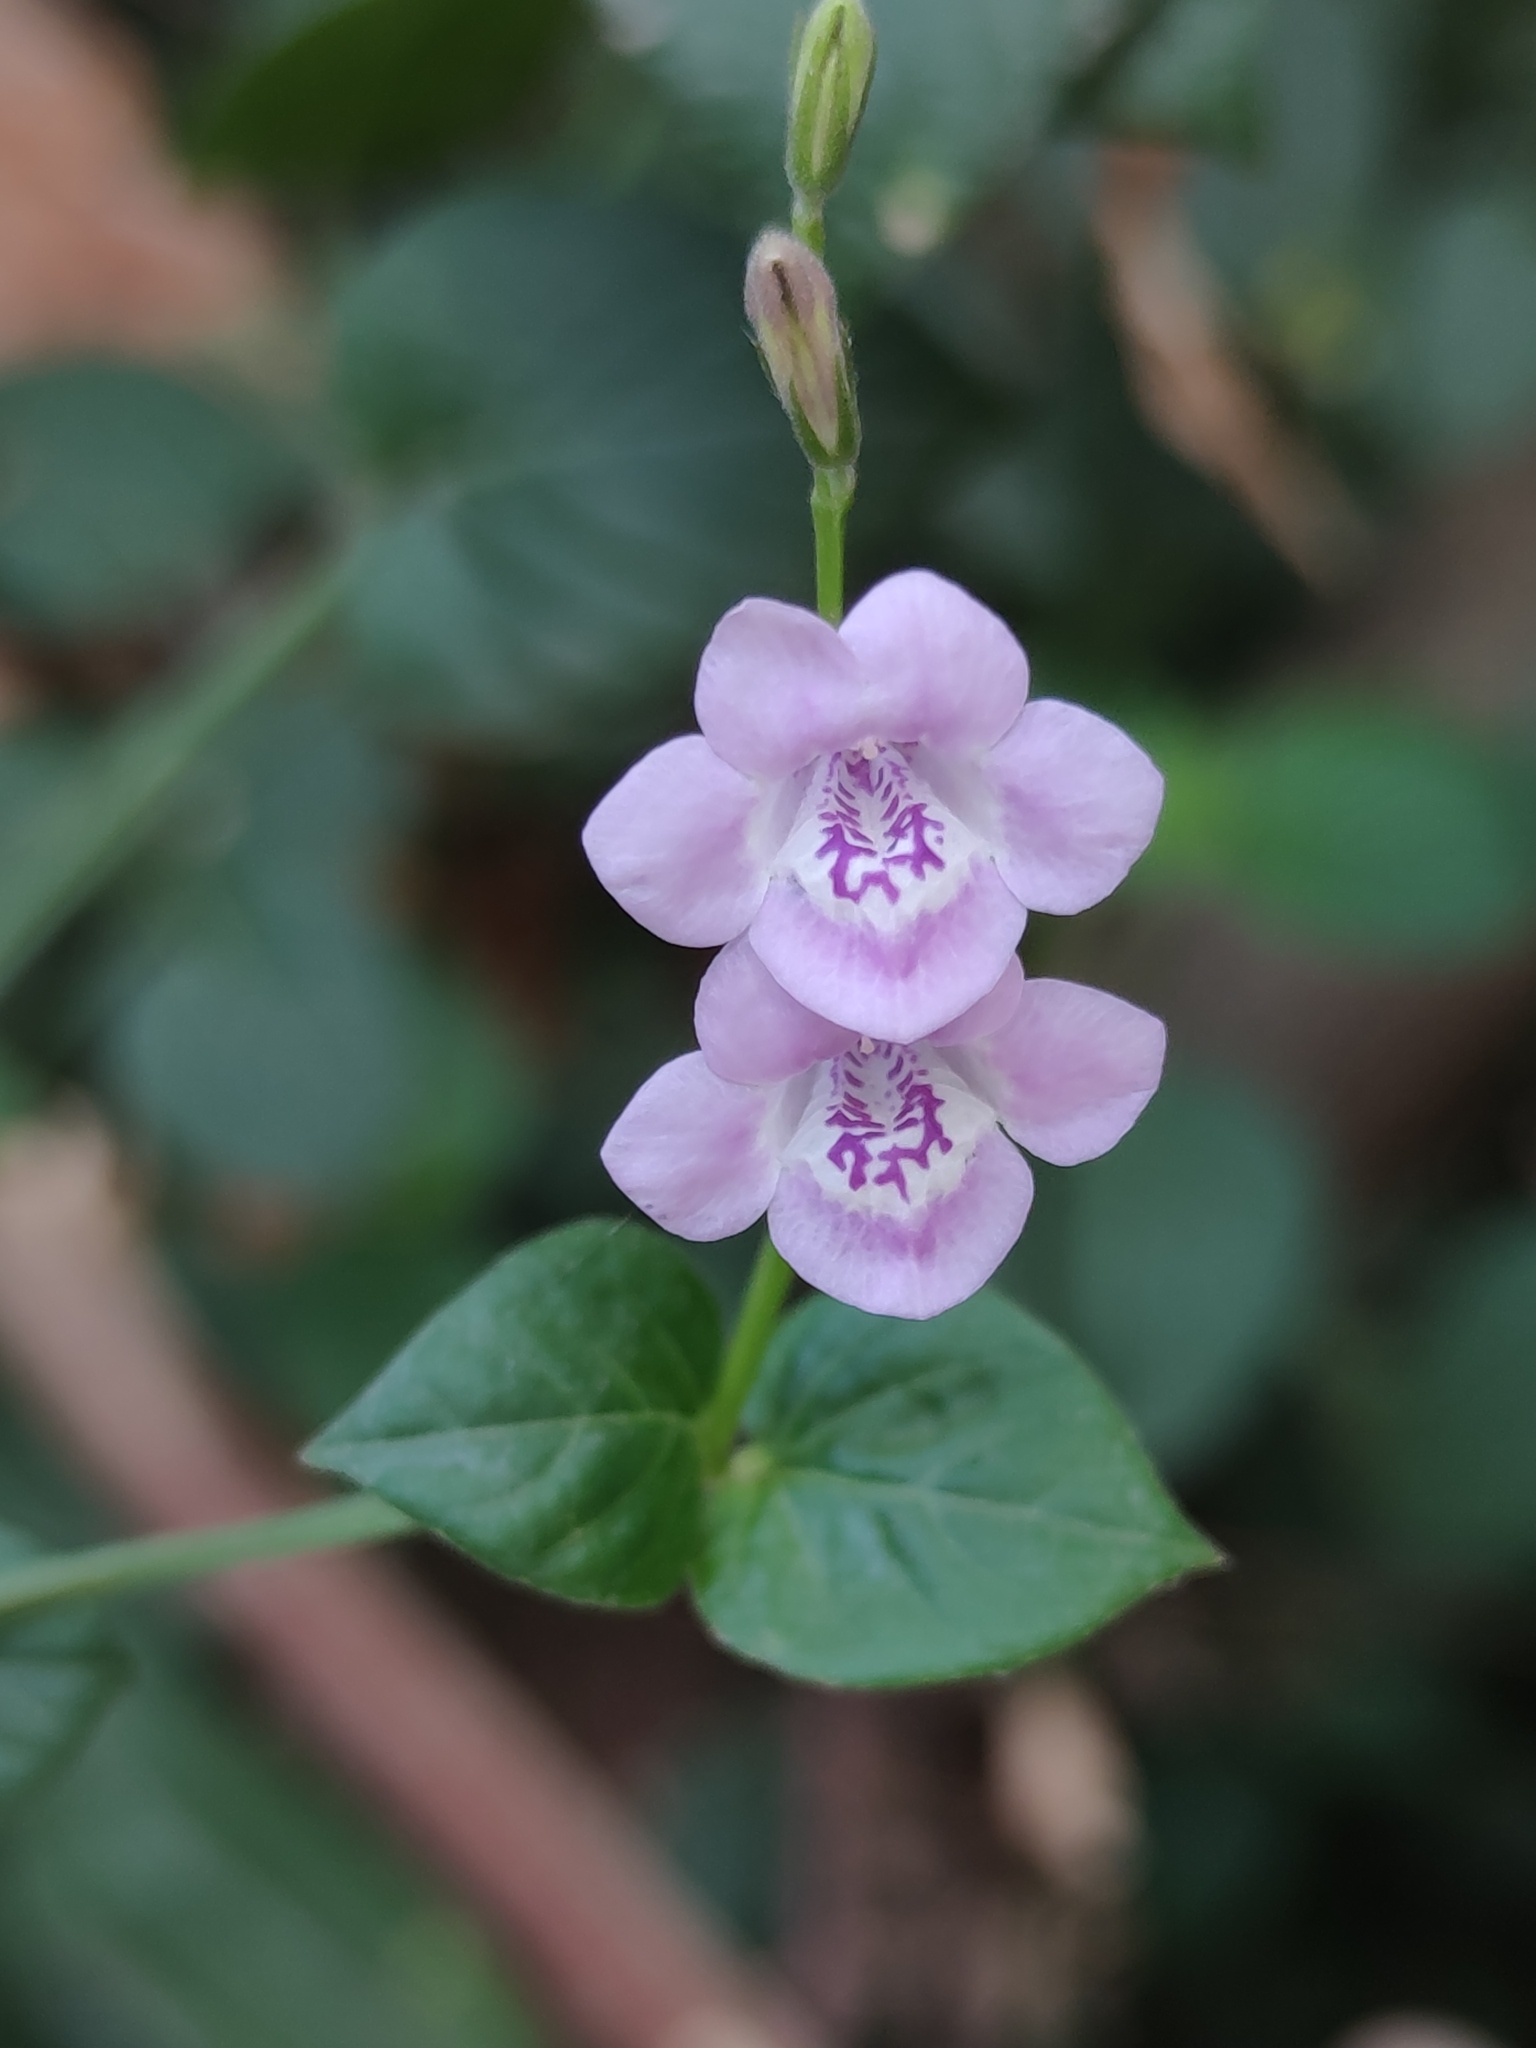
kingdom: Plantae
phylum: Tracheophyta
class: Magnoliopsida
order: Lamiales
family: Acanthaceae
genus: Asystasia
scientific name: Asystasia intrusa
